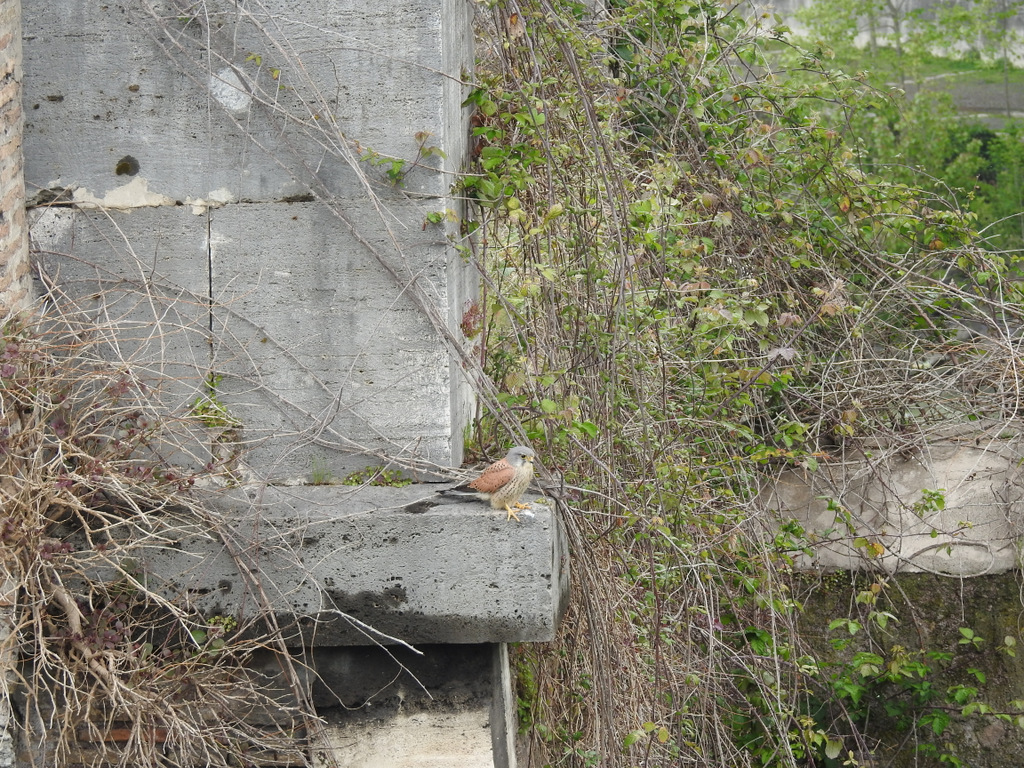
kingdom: Animalia
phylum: Chordata
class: Aves
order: Falconiformes
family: Falconidae
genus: Falco
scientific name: Falco tinnunculus
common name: Common kestrel
